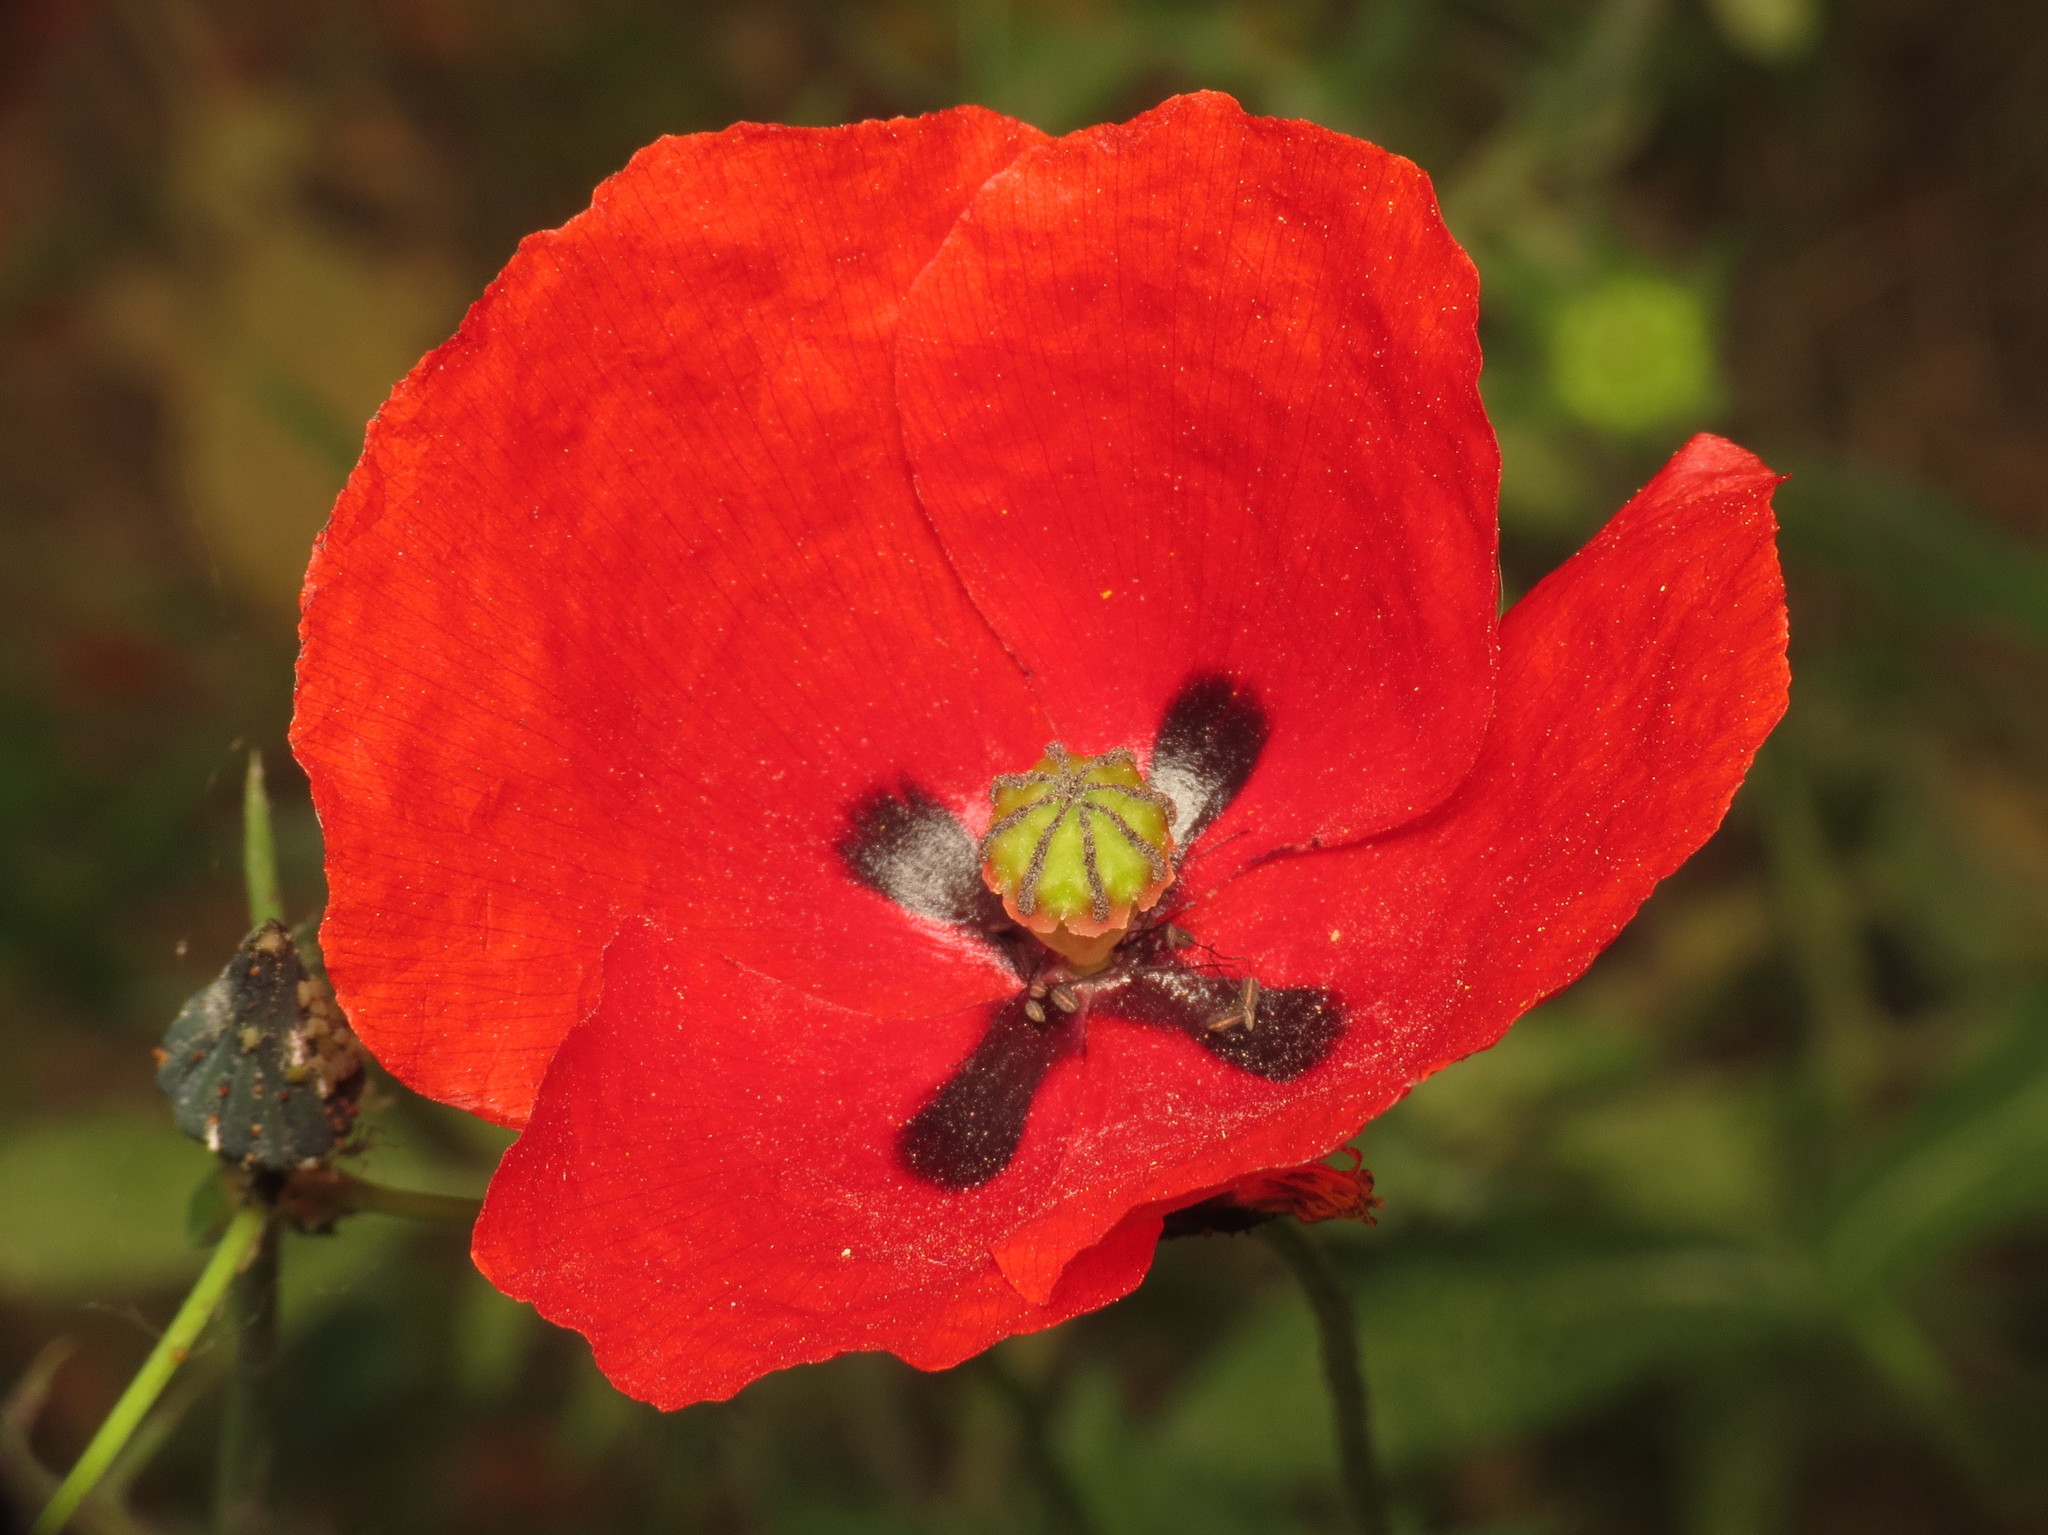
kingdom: Plantae
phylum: Tracheophyta
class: Magnoliopsida
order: Ranunculales
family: Papaveraceae
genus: Papaver
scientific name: Papaver rhoeas
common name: Corn poppy
